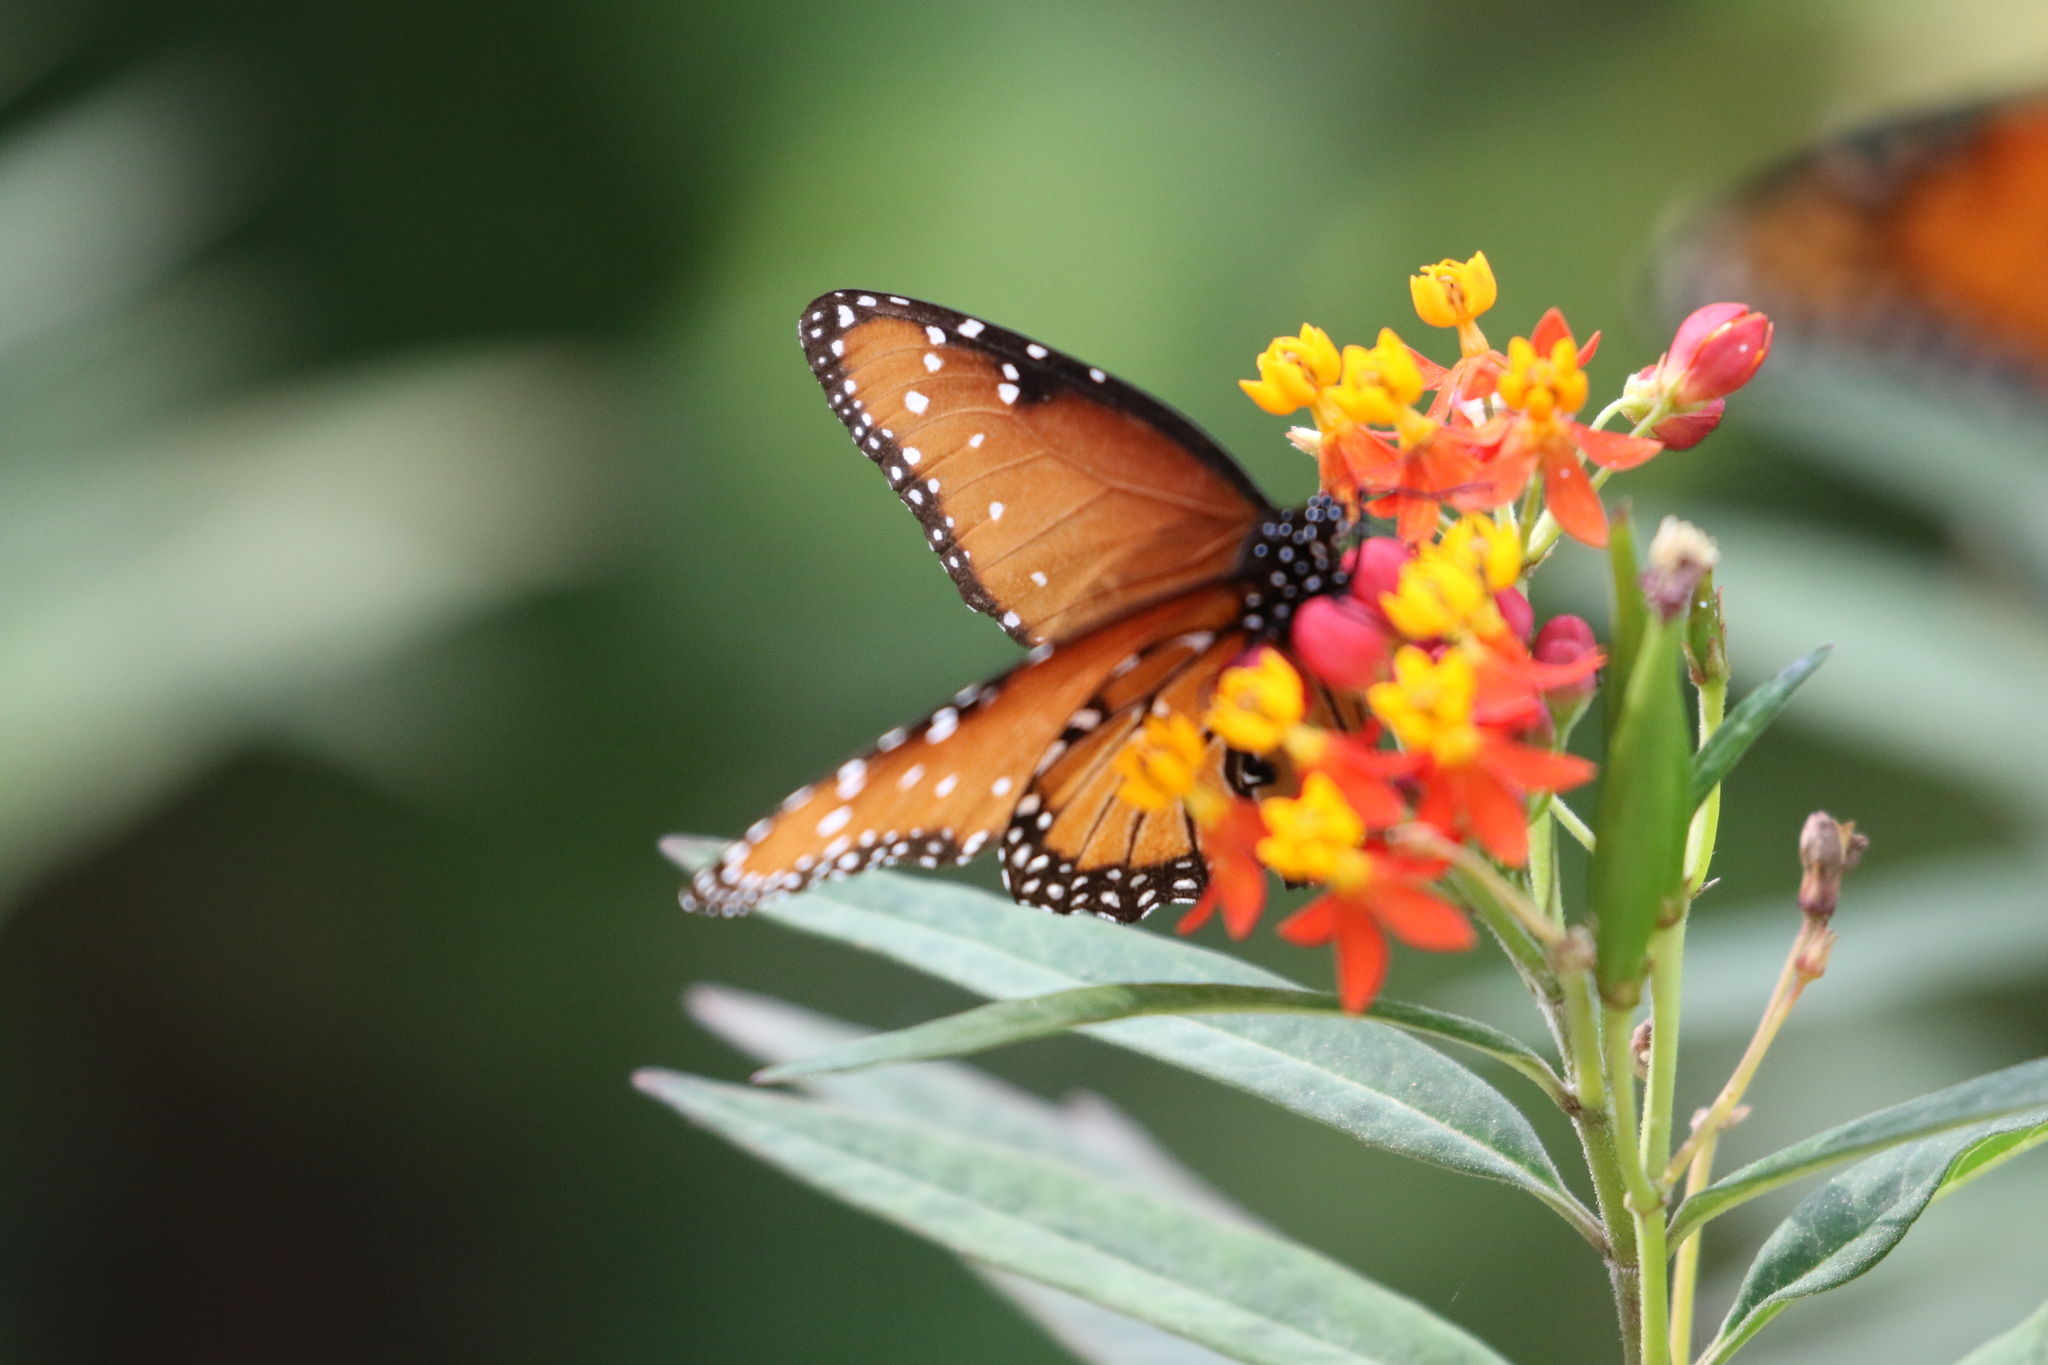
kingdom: Animalia
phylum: Arthropoda
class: Insecta
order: Lepidoptera
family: Nymphalidae
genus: Danaus
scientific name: Danaus gilippus
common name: Queen
